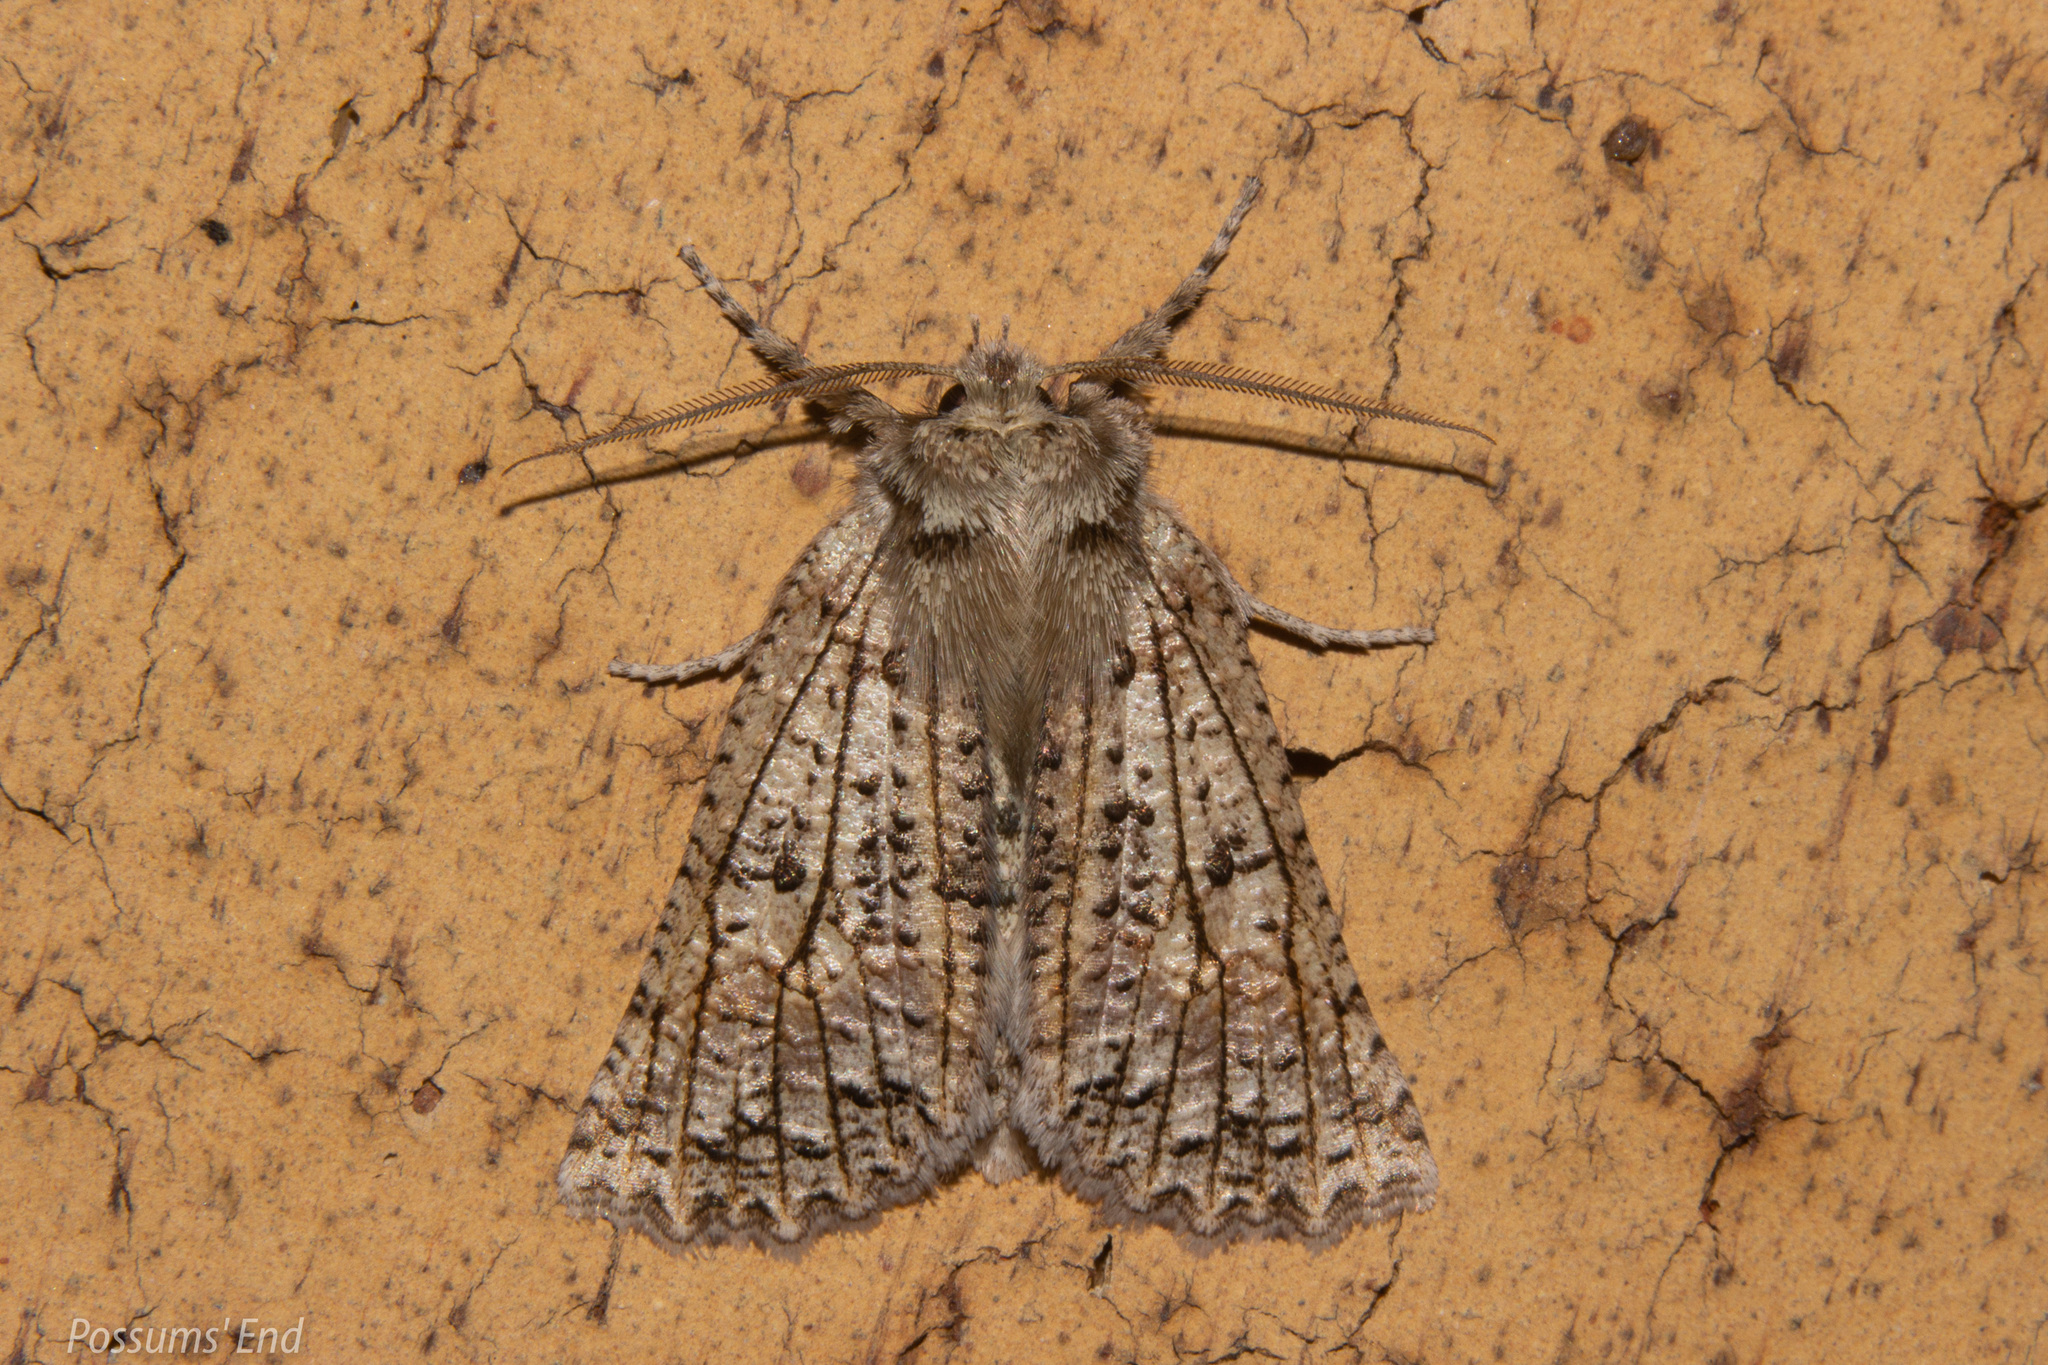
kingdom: Animalia
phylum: Arthropoda
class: Insecta
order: Lepidoptera
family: Geometridae
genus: Declana
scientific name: Declana floccosa
